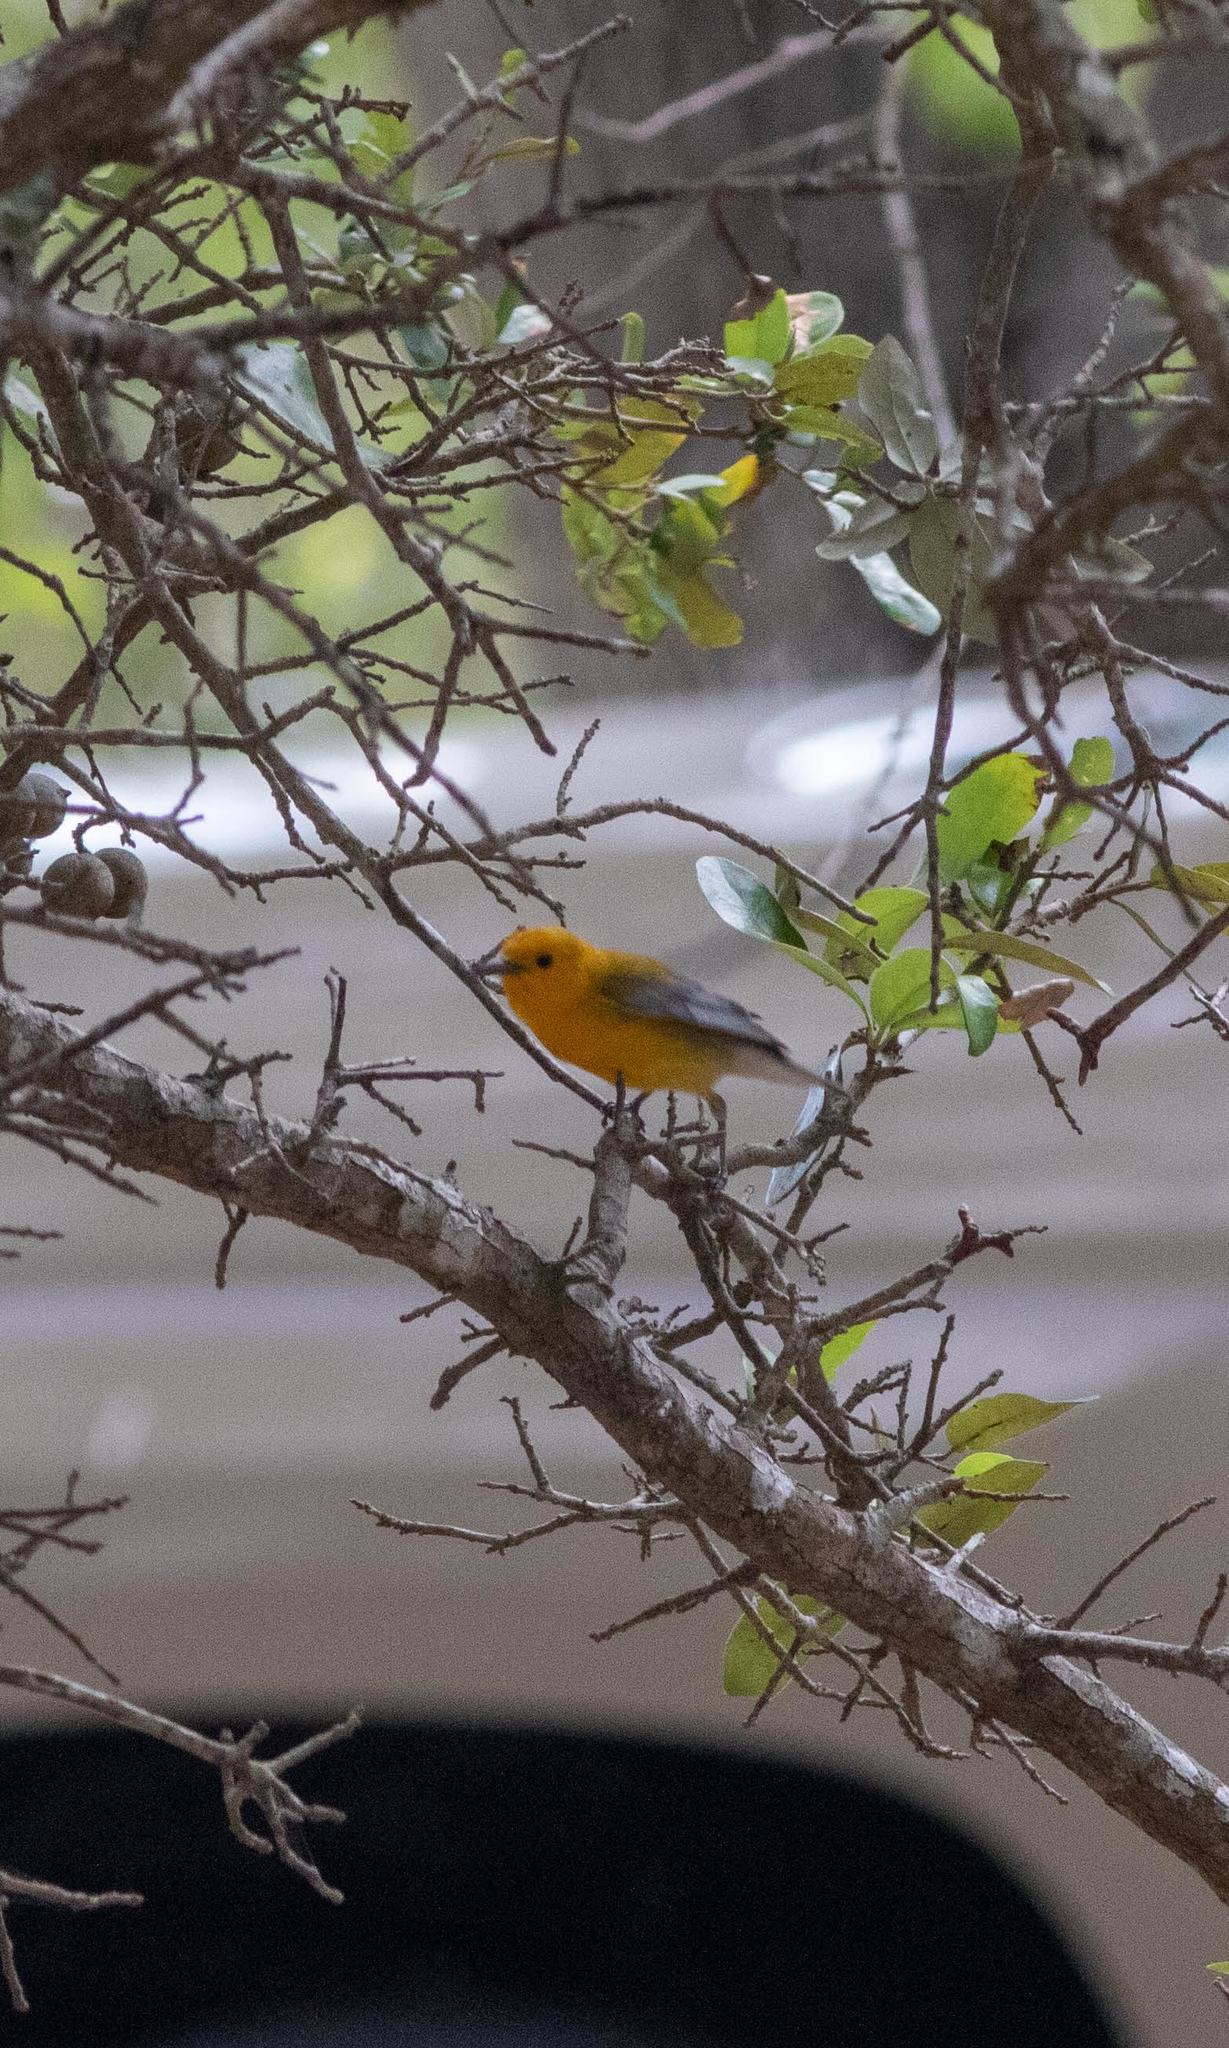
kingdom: Animalia
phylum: Chordata
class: Aves
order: Passeriformes
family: Parulidae
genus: Protonotaria
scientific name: Protonotaria citrea
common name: Prothonotary warbler
